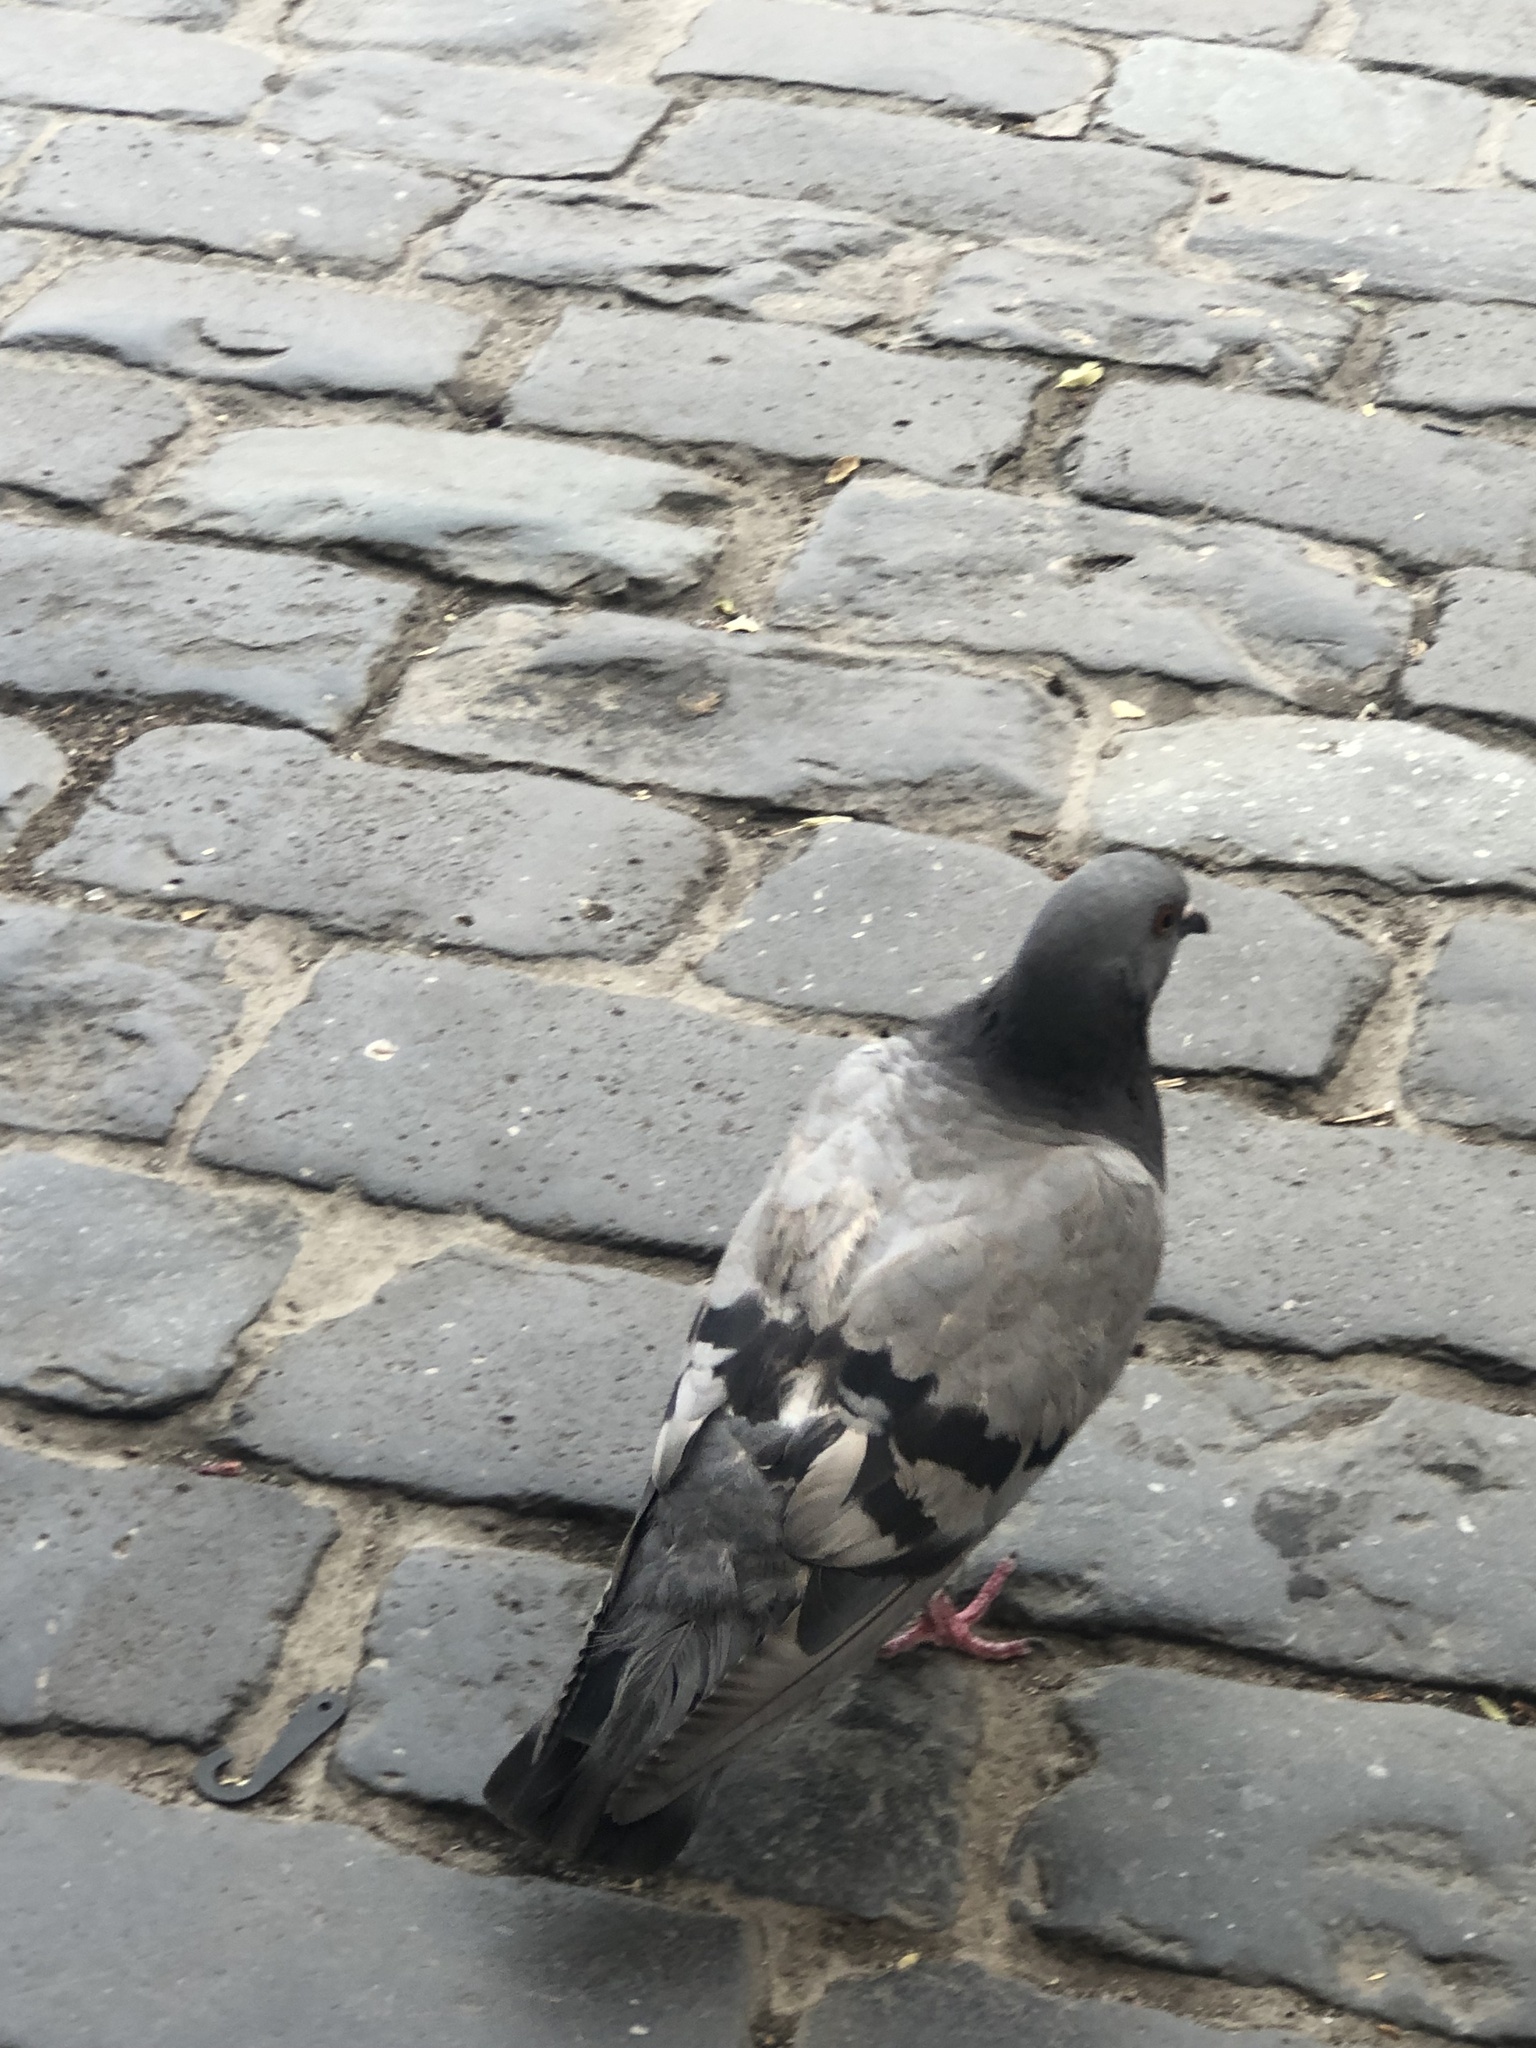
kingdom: Animalia
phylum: Chordata
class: Aves
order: Columbiformes
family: Columbidae
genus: Columba
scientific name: Columba livia
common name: Rock pigeon
